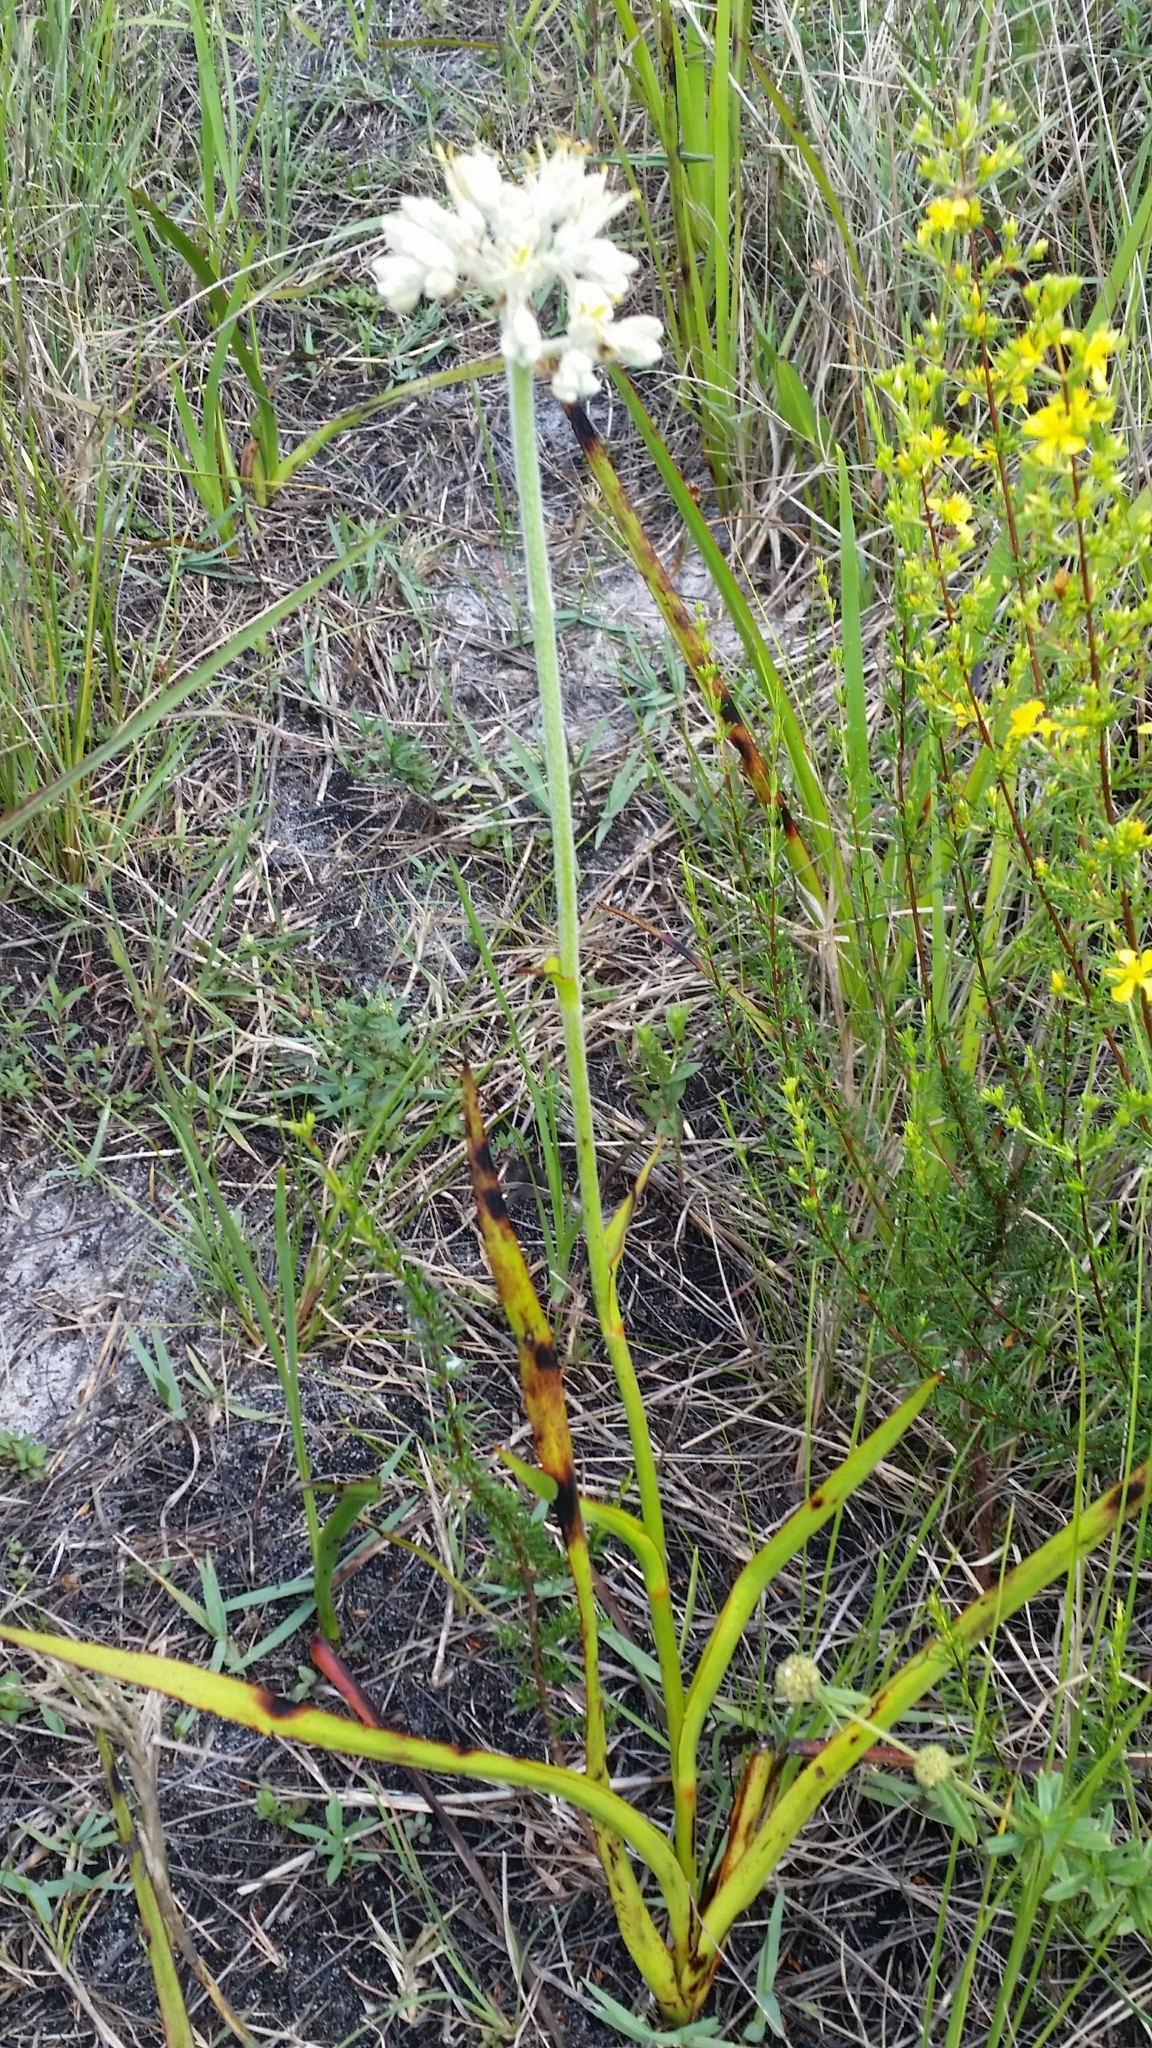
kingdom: Plantae
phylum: Tracheophyta
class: Liliopsida
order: Commelinales
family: Haemodoraceae
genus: Lachnanthes
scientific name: Lachnanthes caroliana
